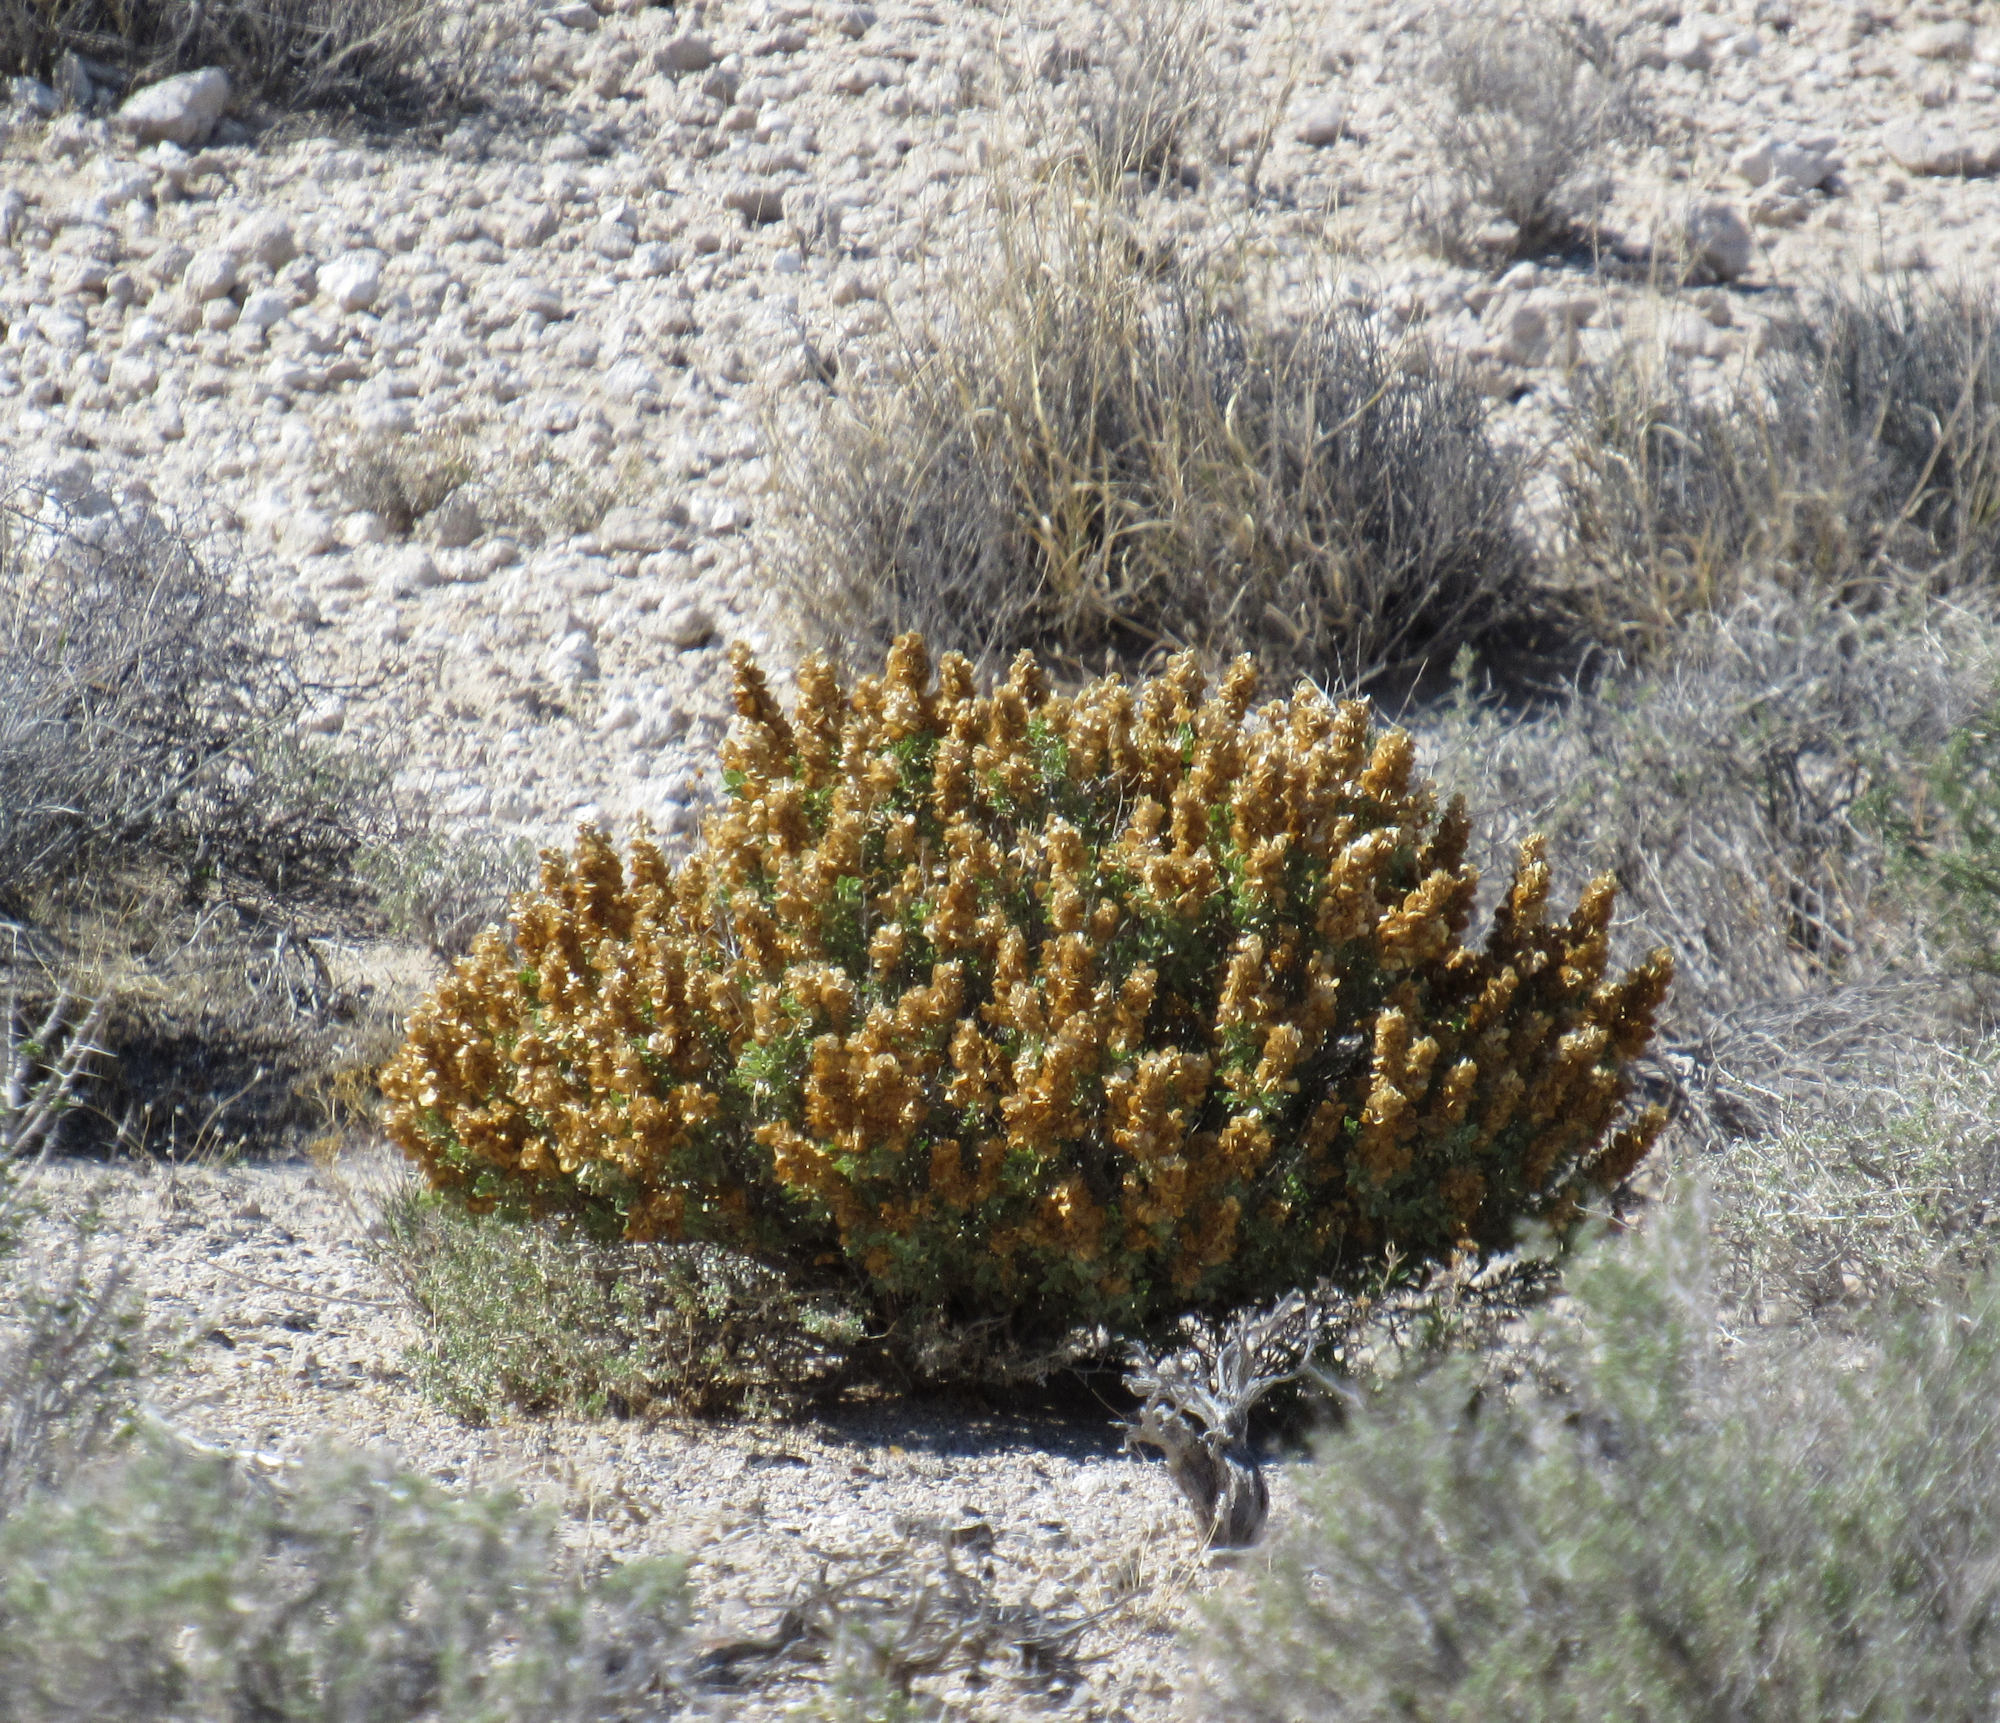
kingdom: Plantae
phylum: Tracheophyta
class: Magnoliopsida
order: Caryophyllales
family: Amaranthaceae
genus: Atriplex
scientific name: Atriplex confertifolia
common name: Shadscale
